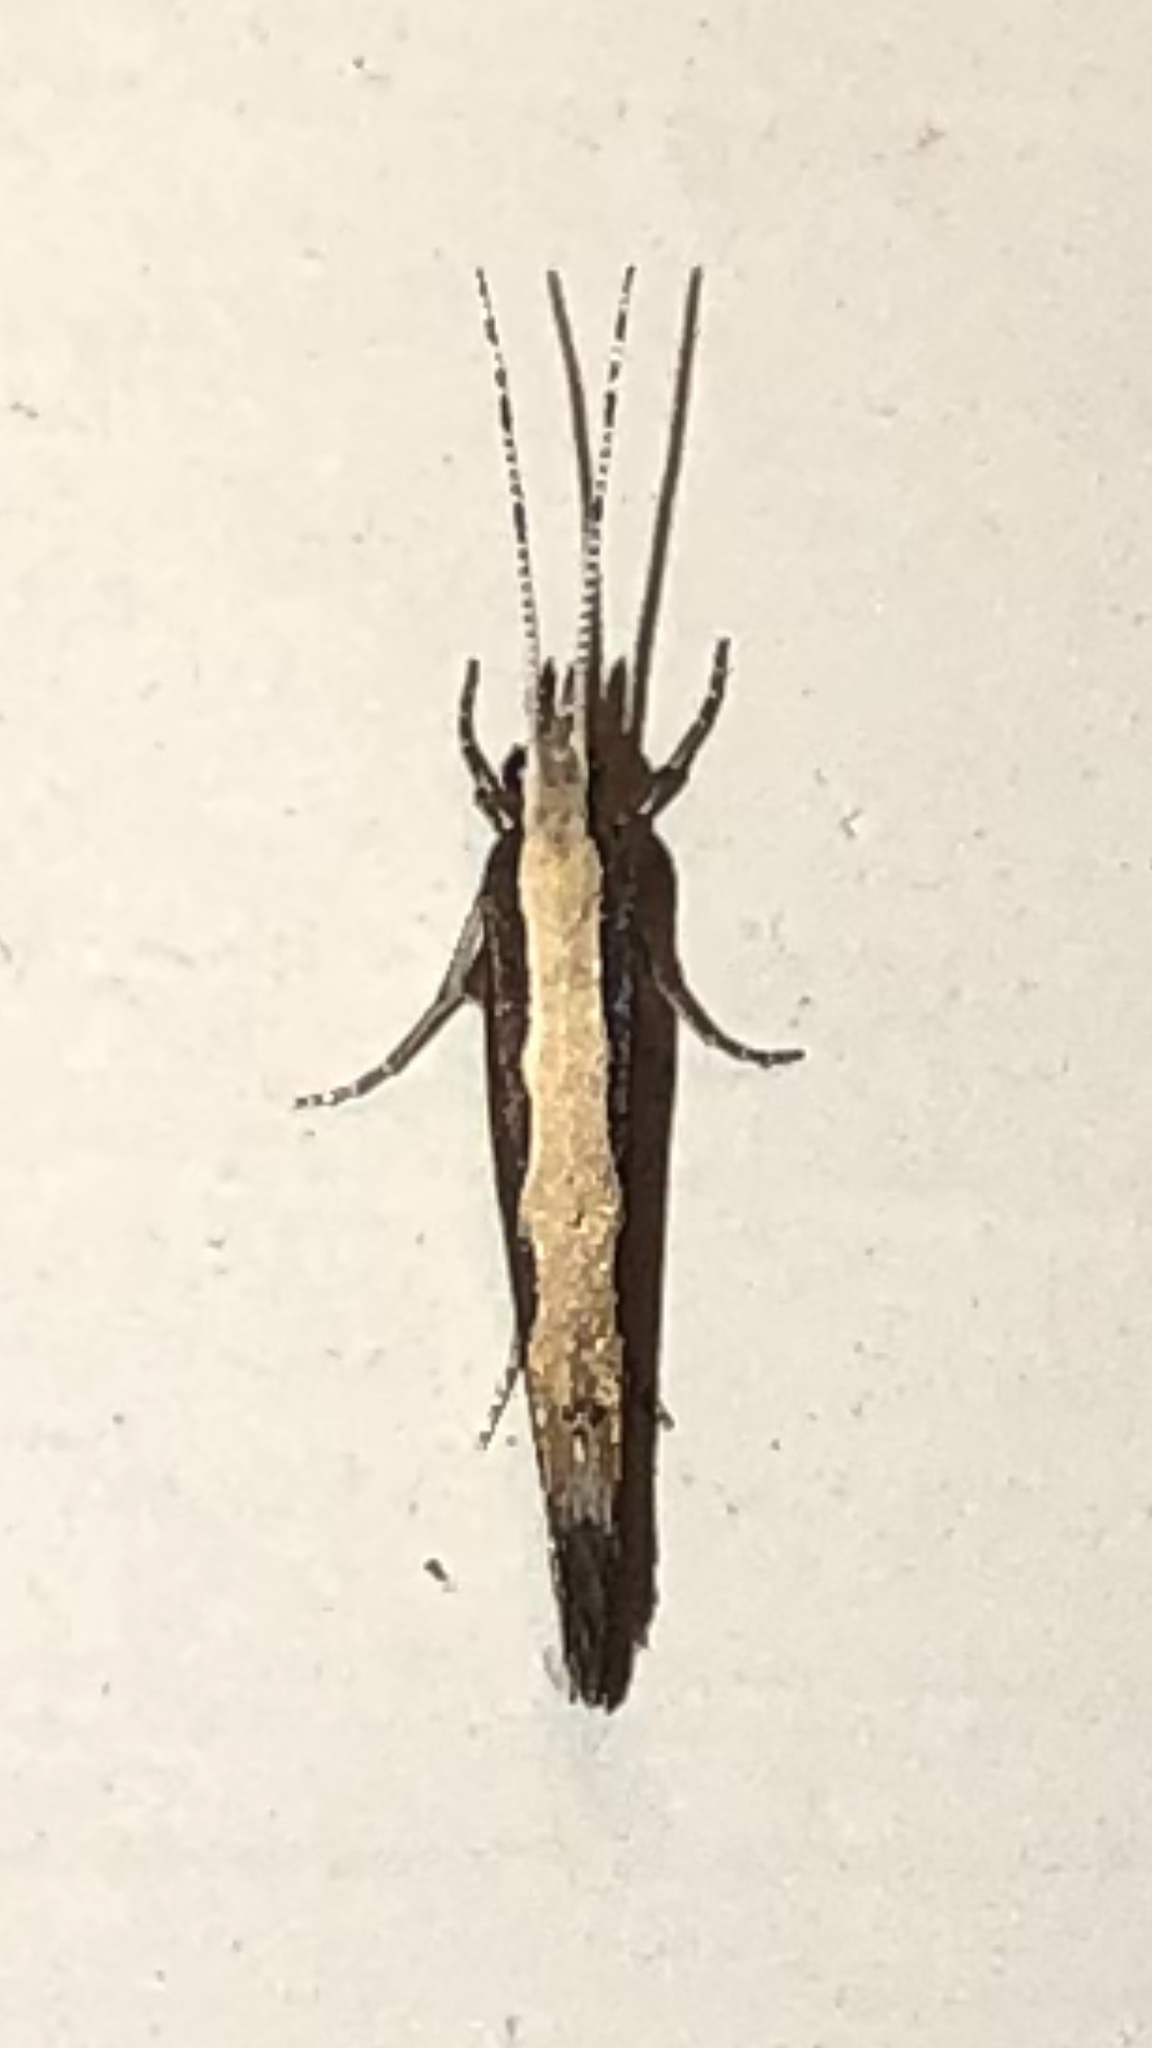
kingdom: Animalia
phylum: Arthropoda
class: Insecta
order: Lepidoptera
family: Plutellidae
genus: Plutella
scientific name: Plutella xylostella
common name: Diamond-back moth
